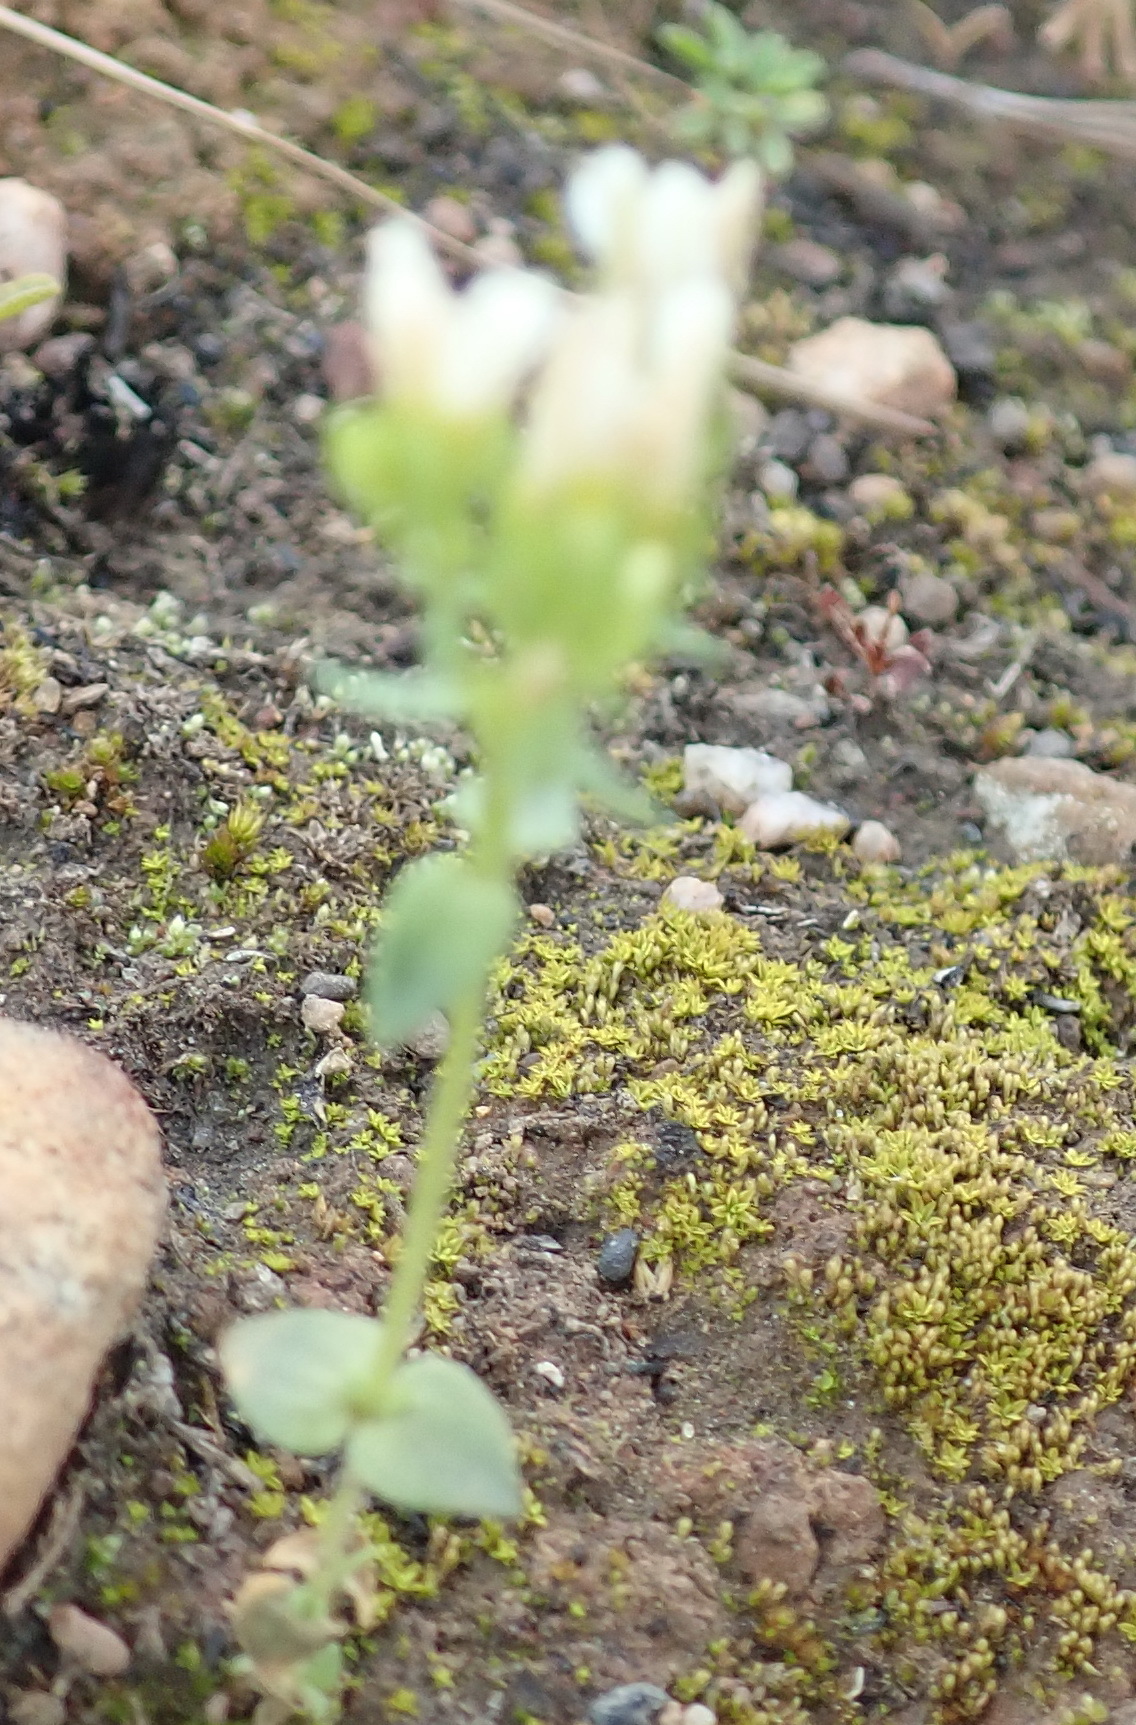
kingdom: Plantae
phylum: Tracheophyta
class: Magnoliopsida
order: Gentianales
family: Gentianaceae
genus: Sebaea
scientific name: Sebaea albens
